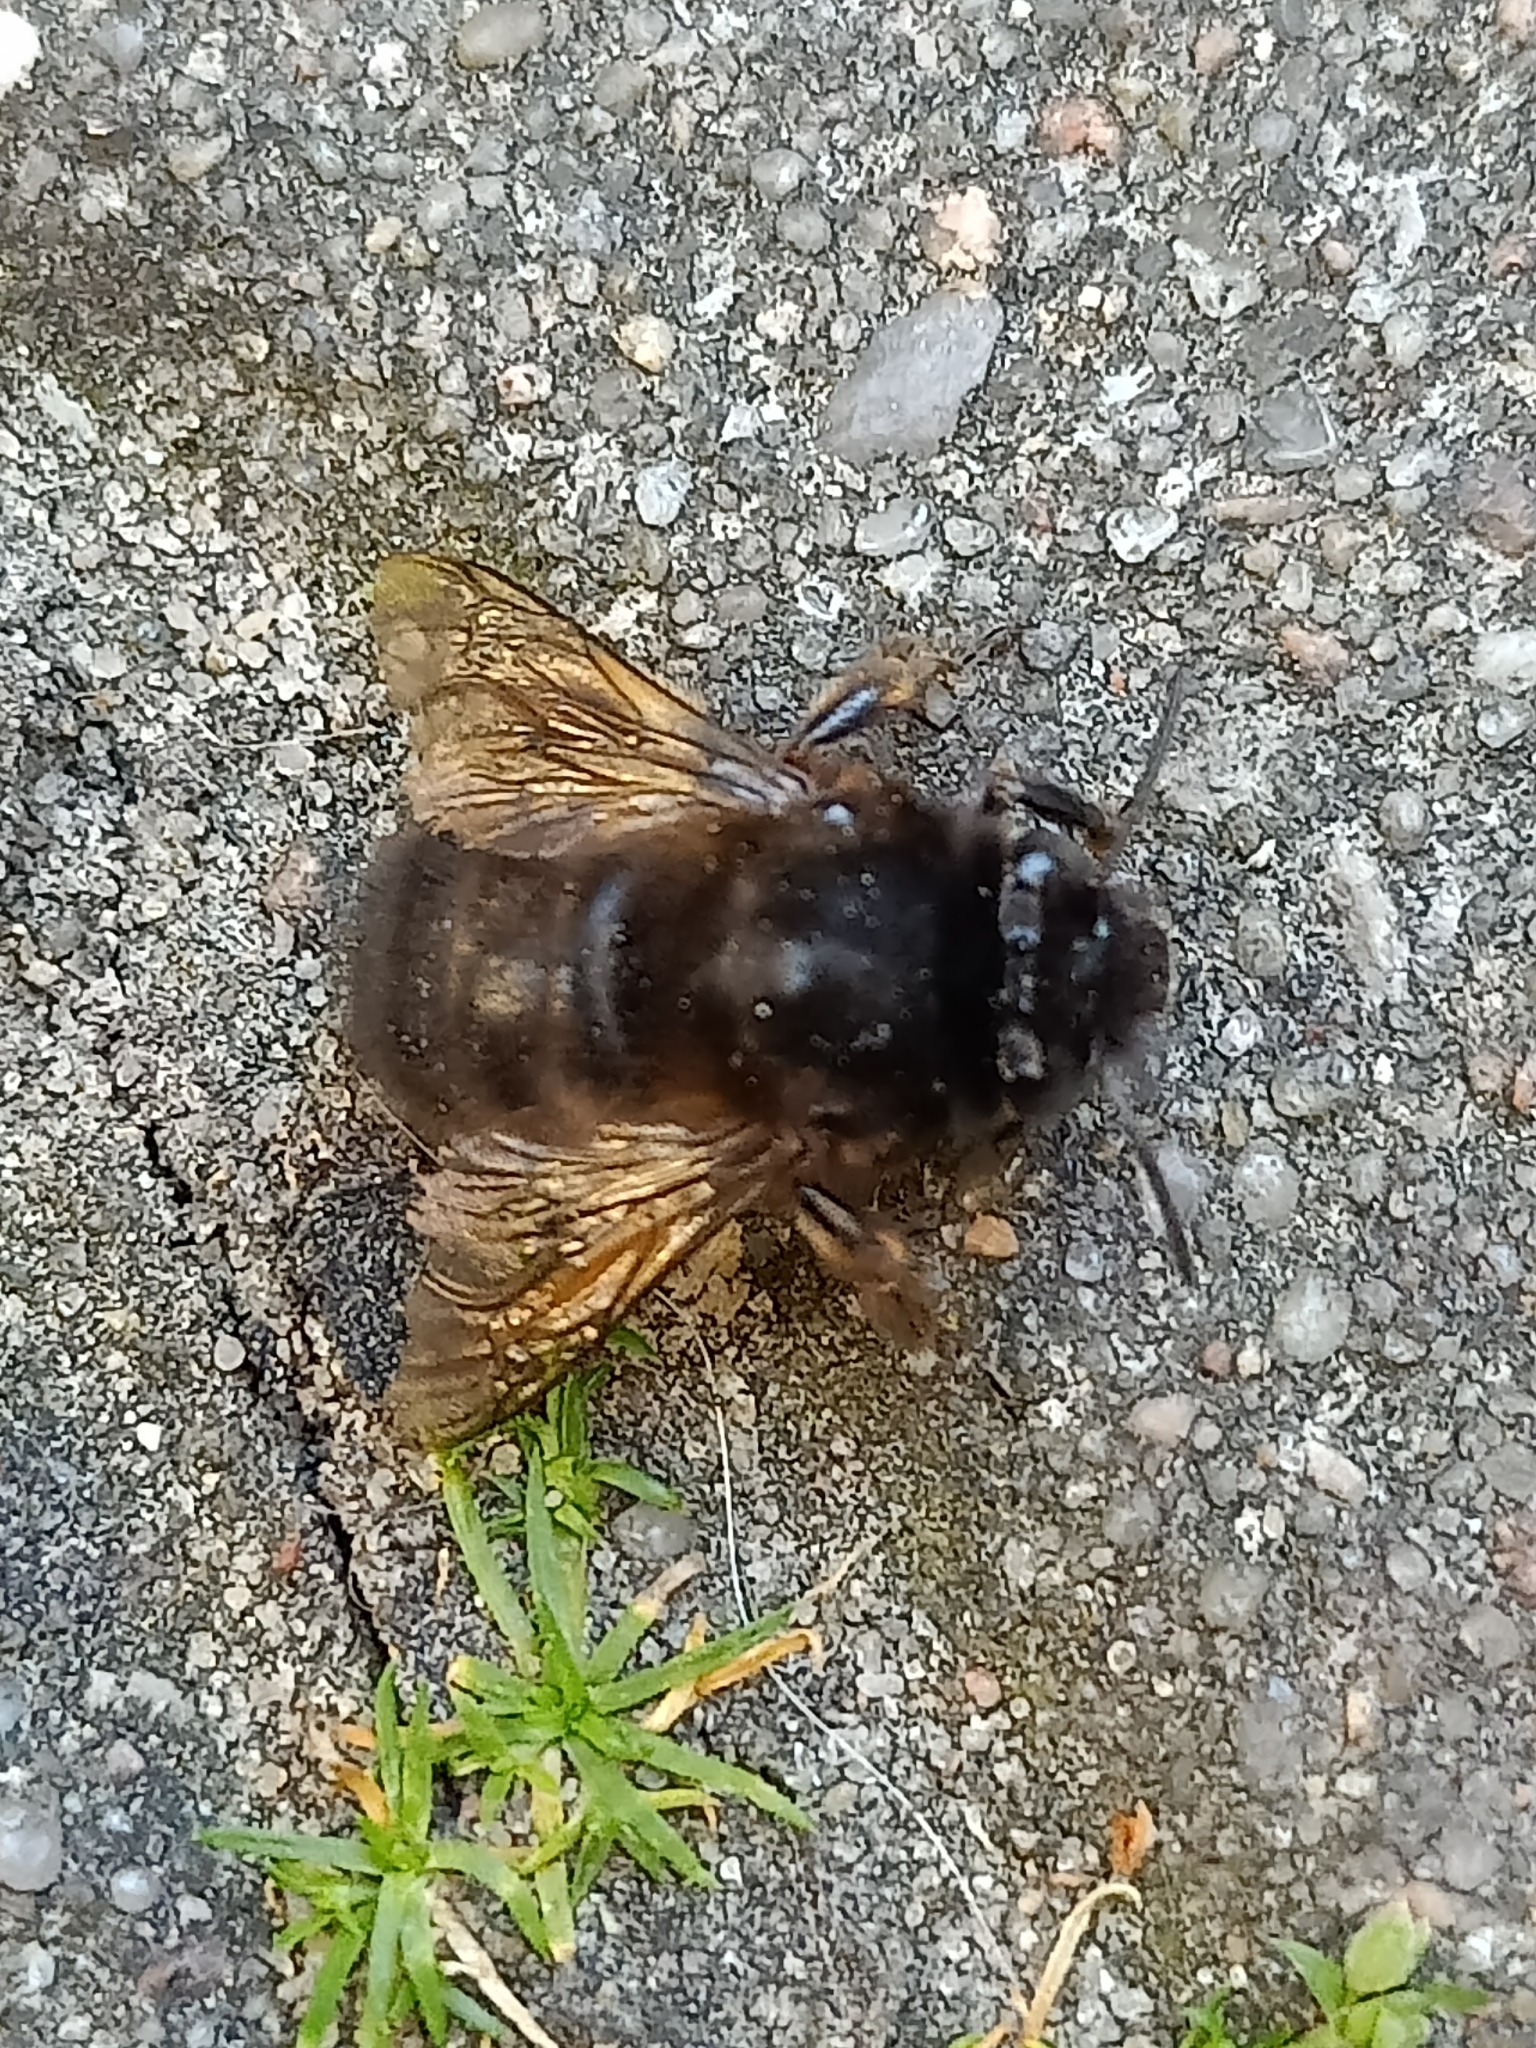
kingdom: Animalia
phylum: Arthropoda
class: Insecta
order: Hymenoptera
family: Apidae
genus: Anthophora
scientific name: Anthophora plumipes
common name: Hairy-footed flower bee
